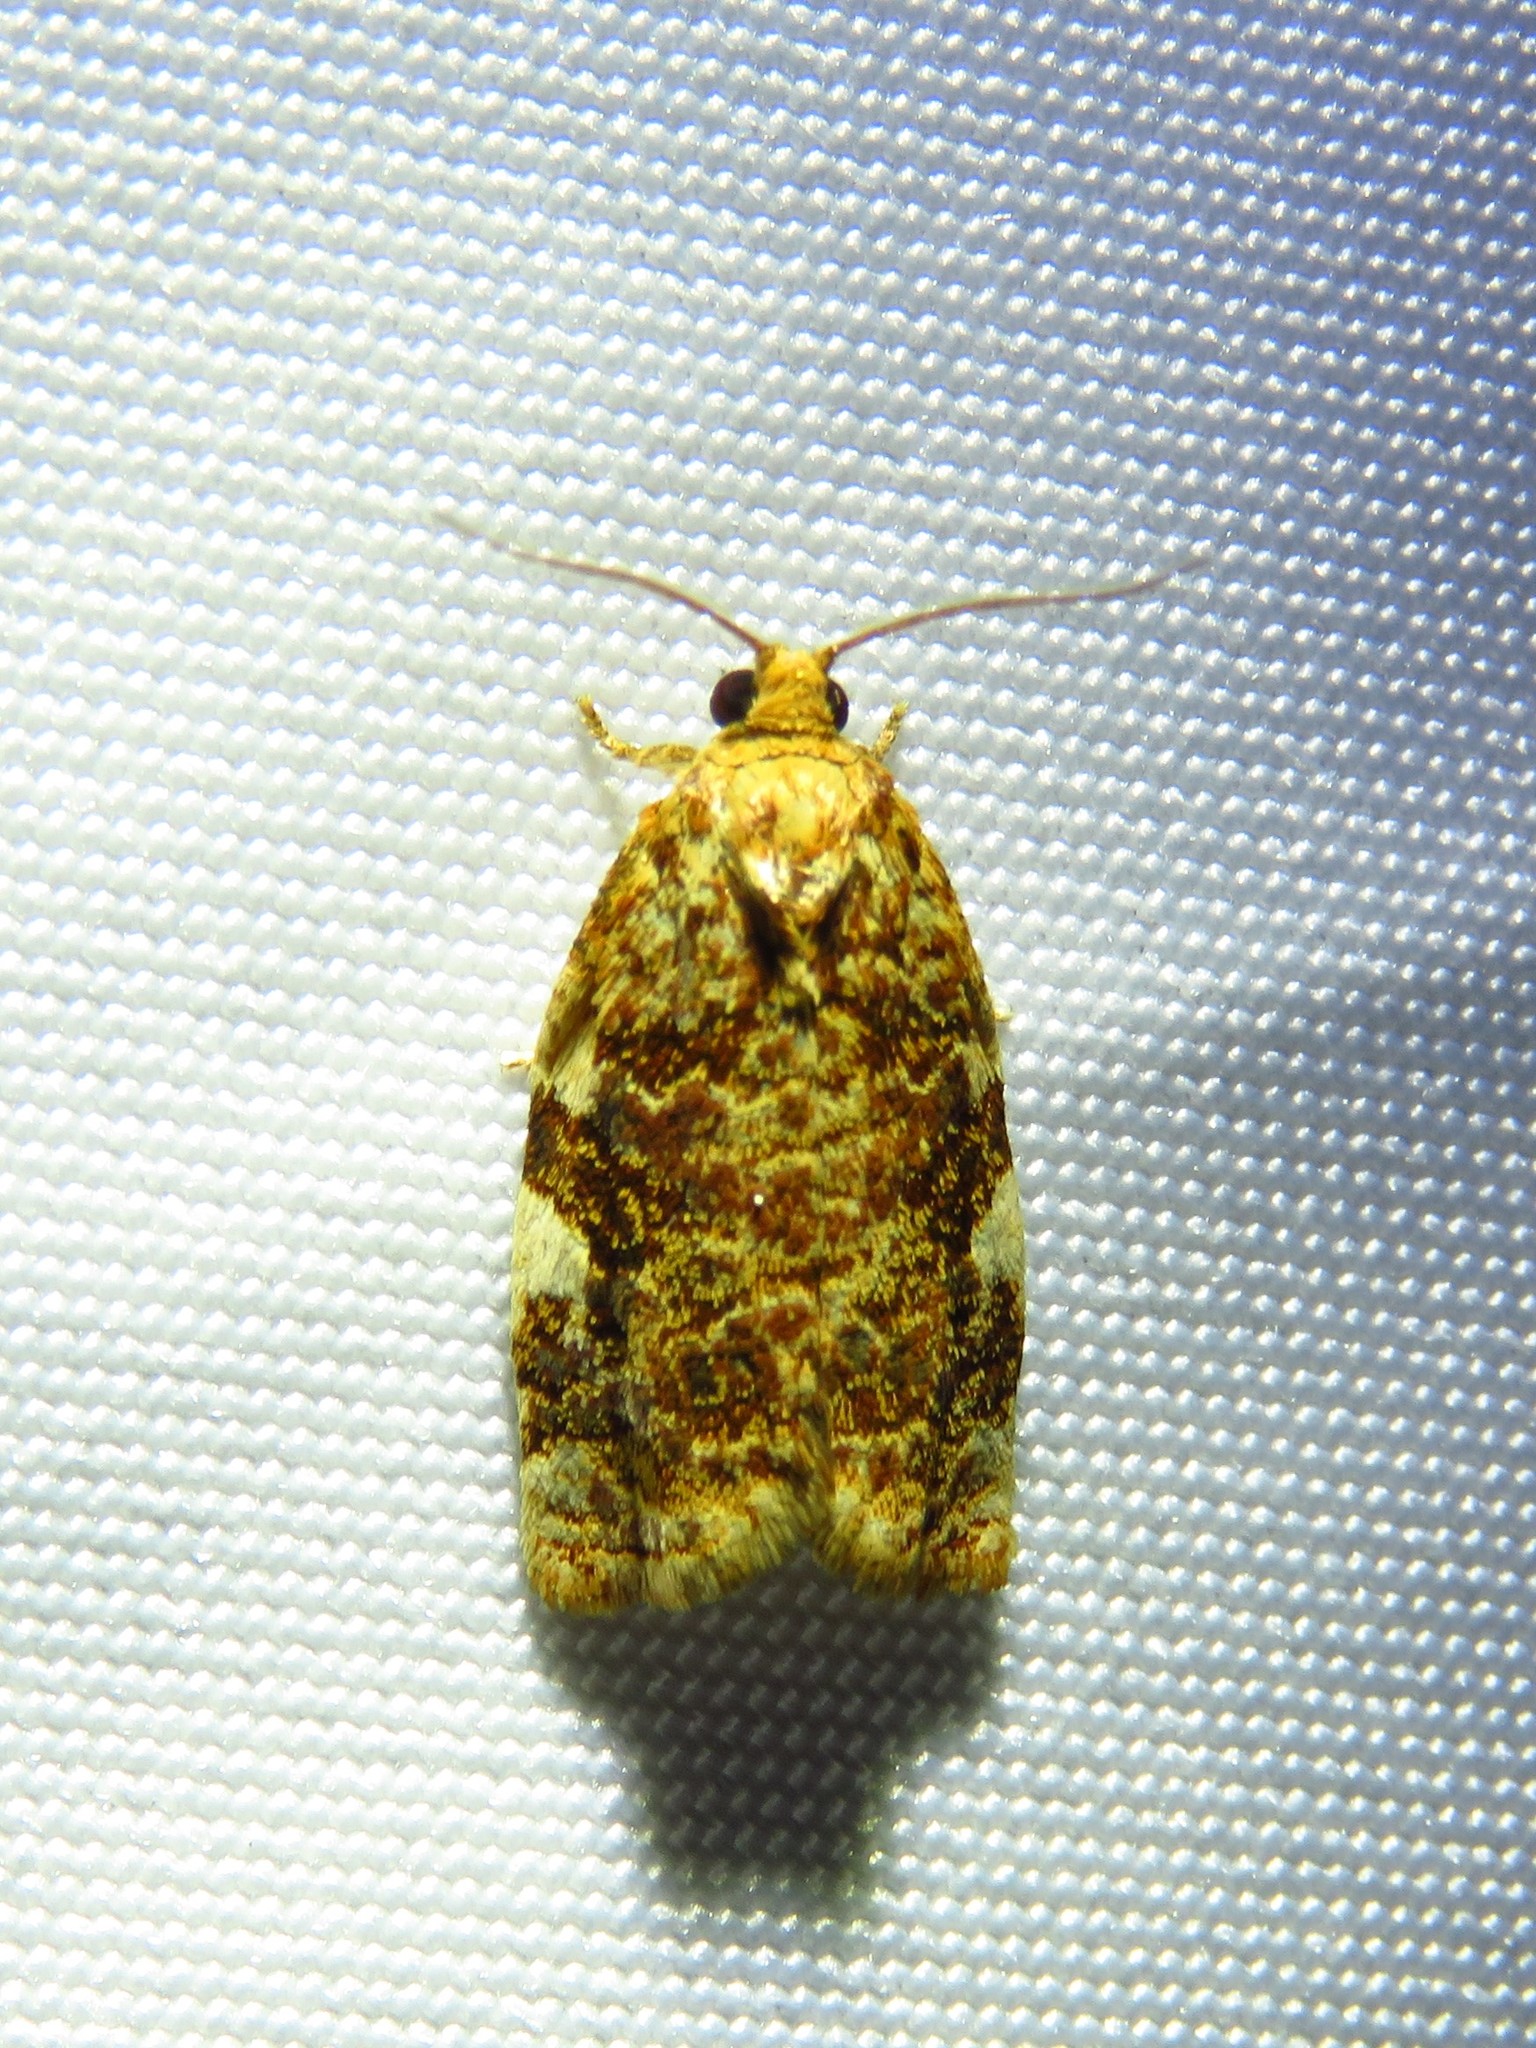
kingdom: Animalia
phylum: Arthropoda
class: Insecta
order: Lepidoptera
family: Tortricidae
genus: Archips
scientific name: Archips argyrospila
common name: Fruit-tree leafroller moth
